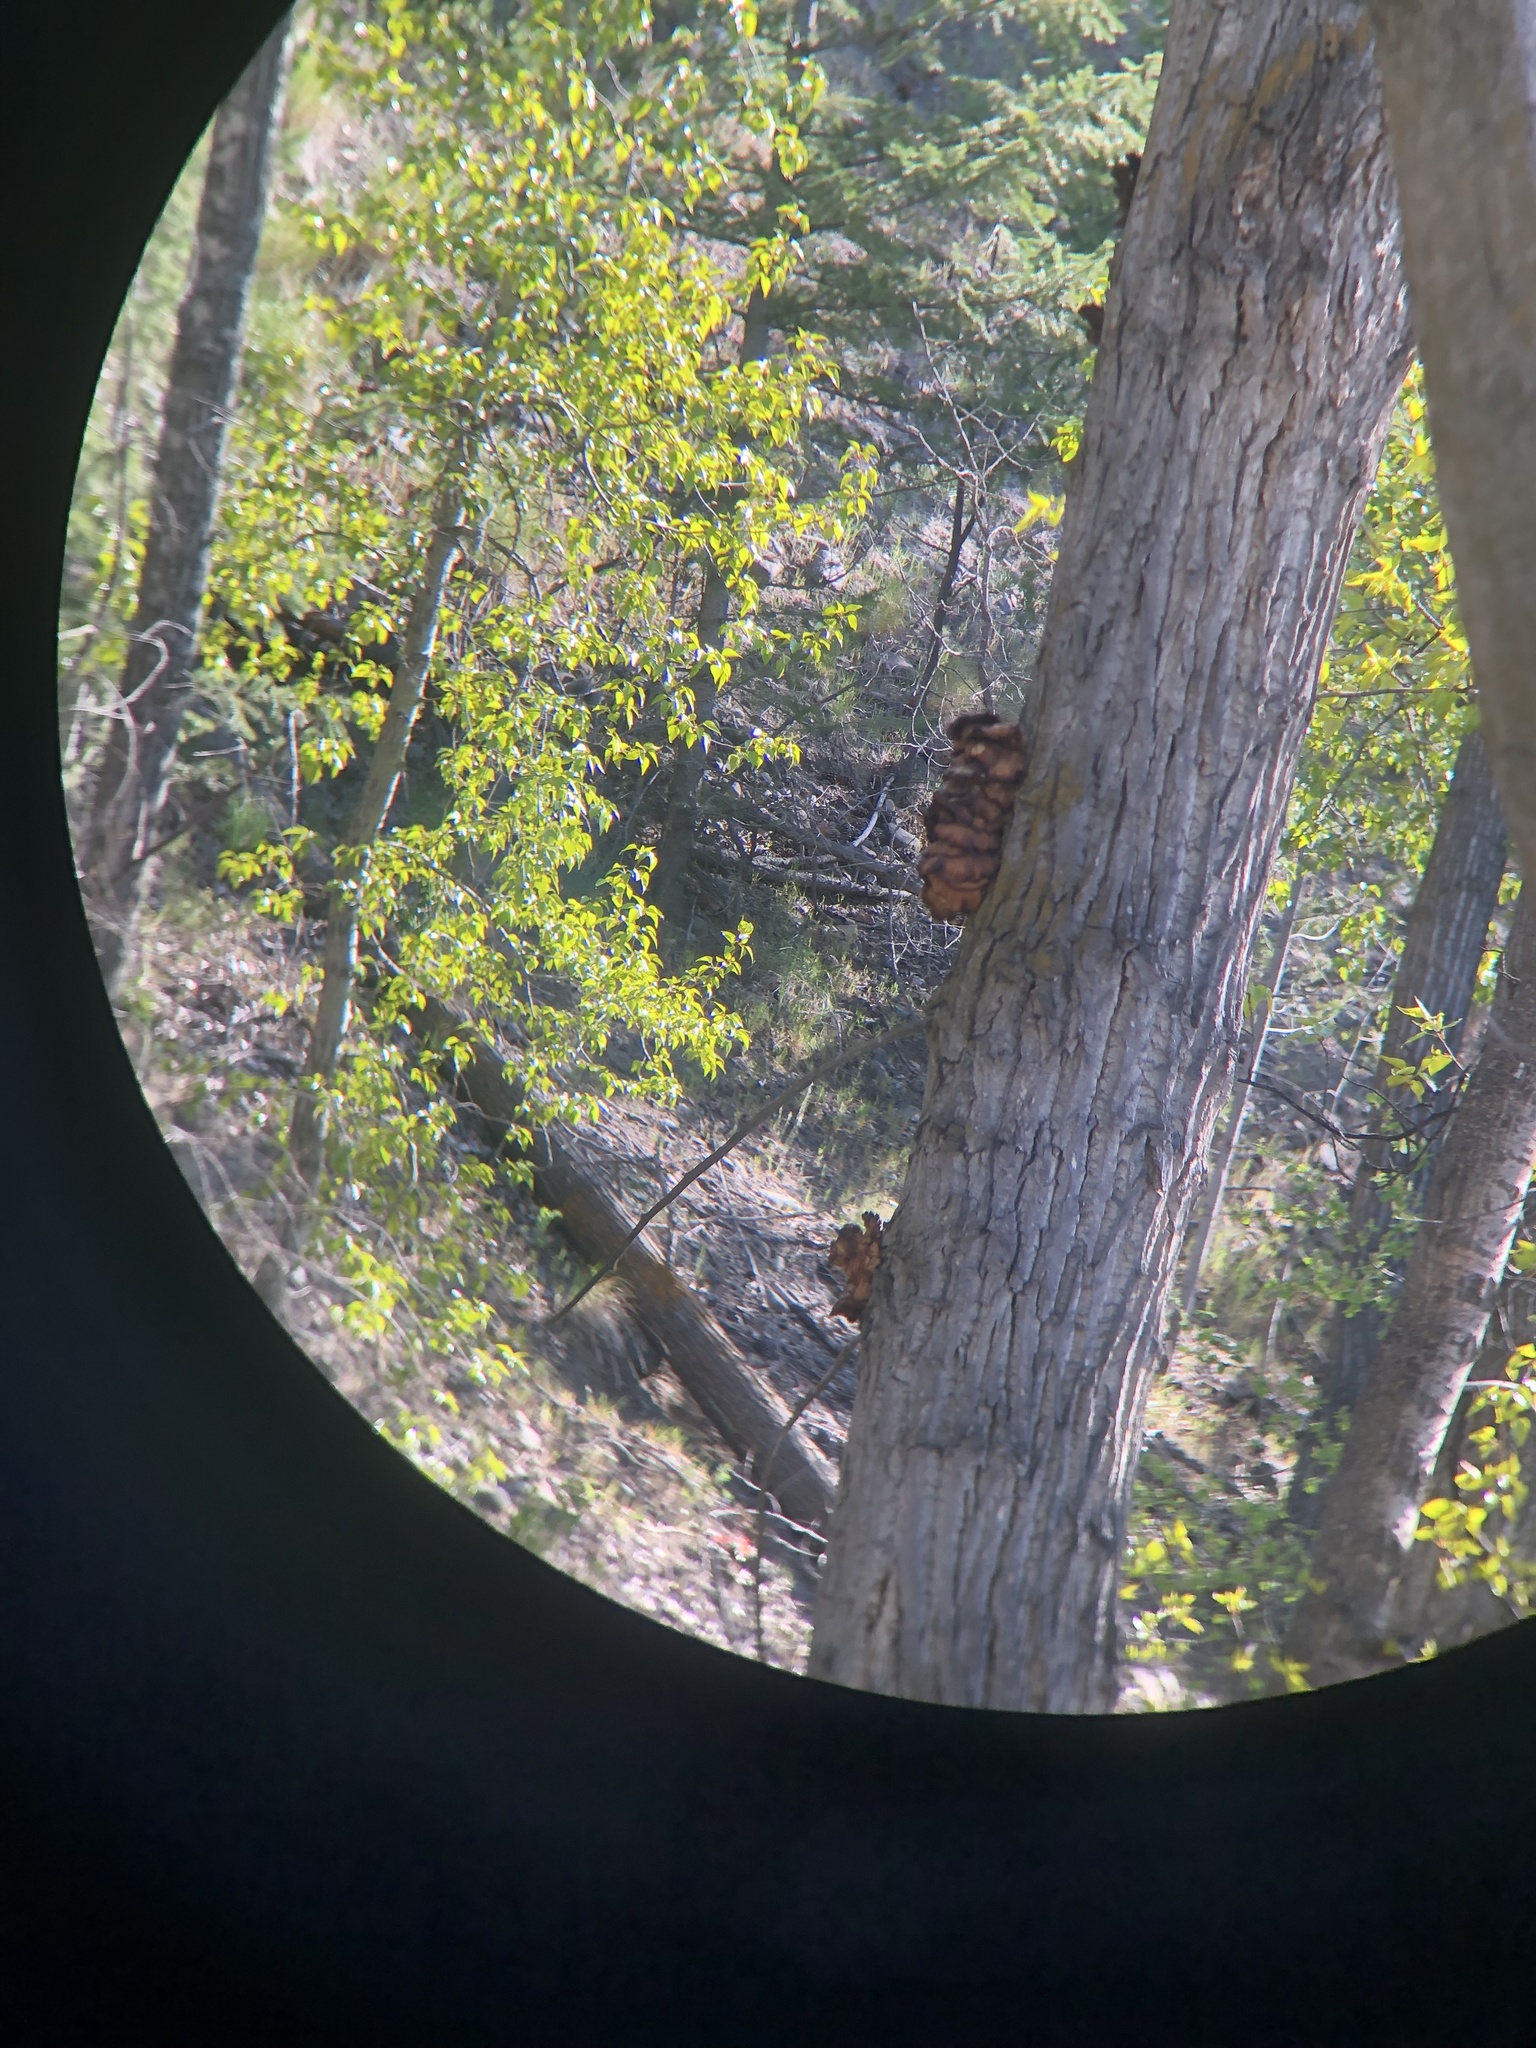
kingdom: Fungi
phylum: Basidiomycota
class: Agaricomycetes
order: Agaricales
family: Pleurotaceae
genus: Pleurotus
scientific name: Pleurotus populinus
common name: Aspen oyster mushroom
